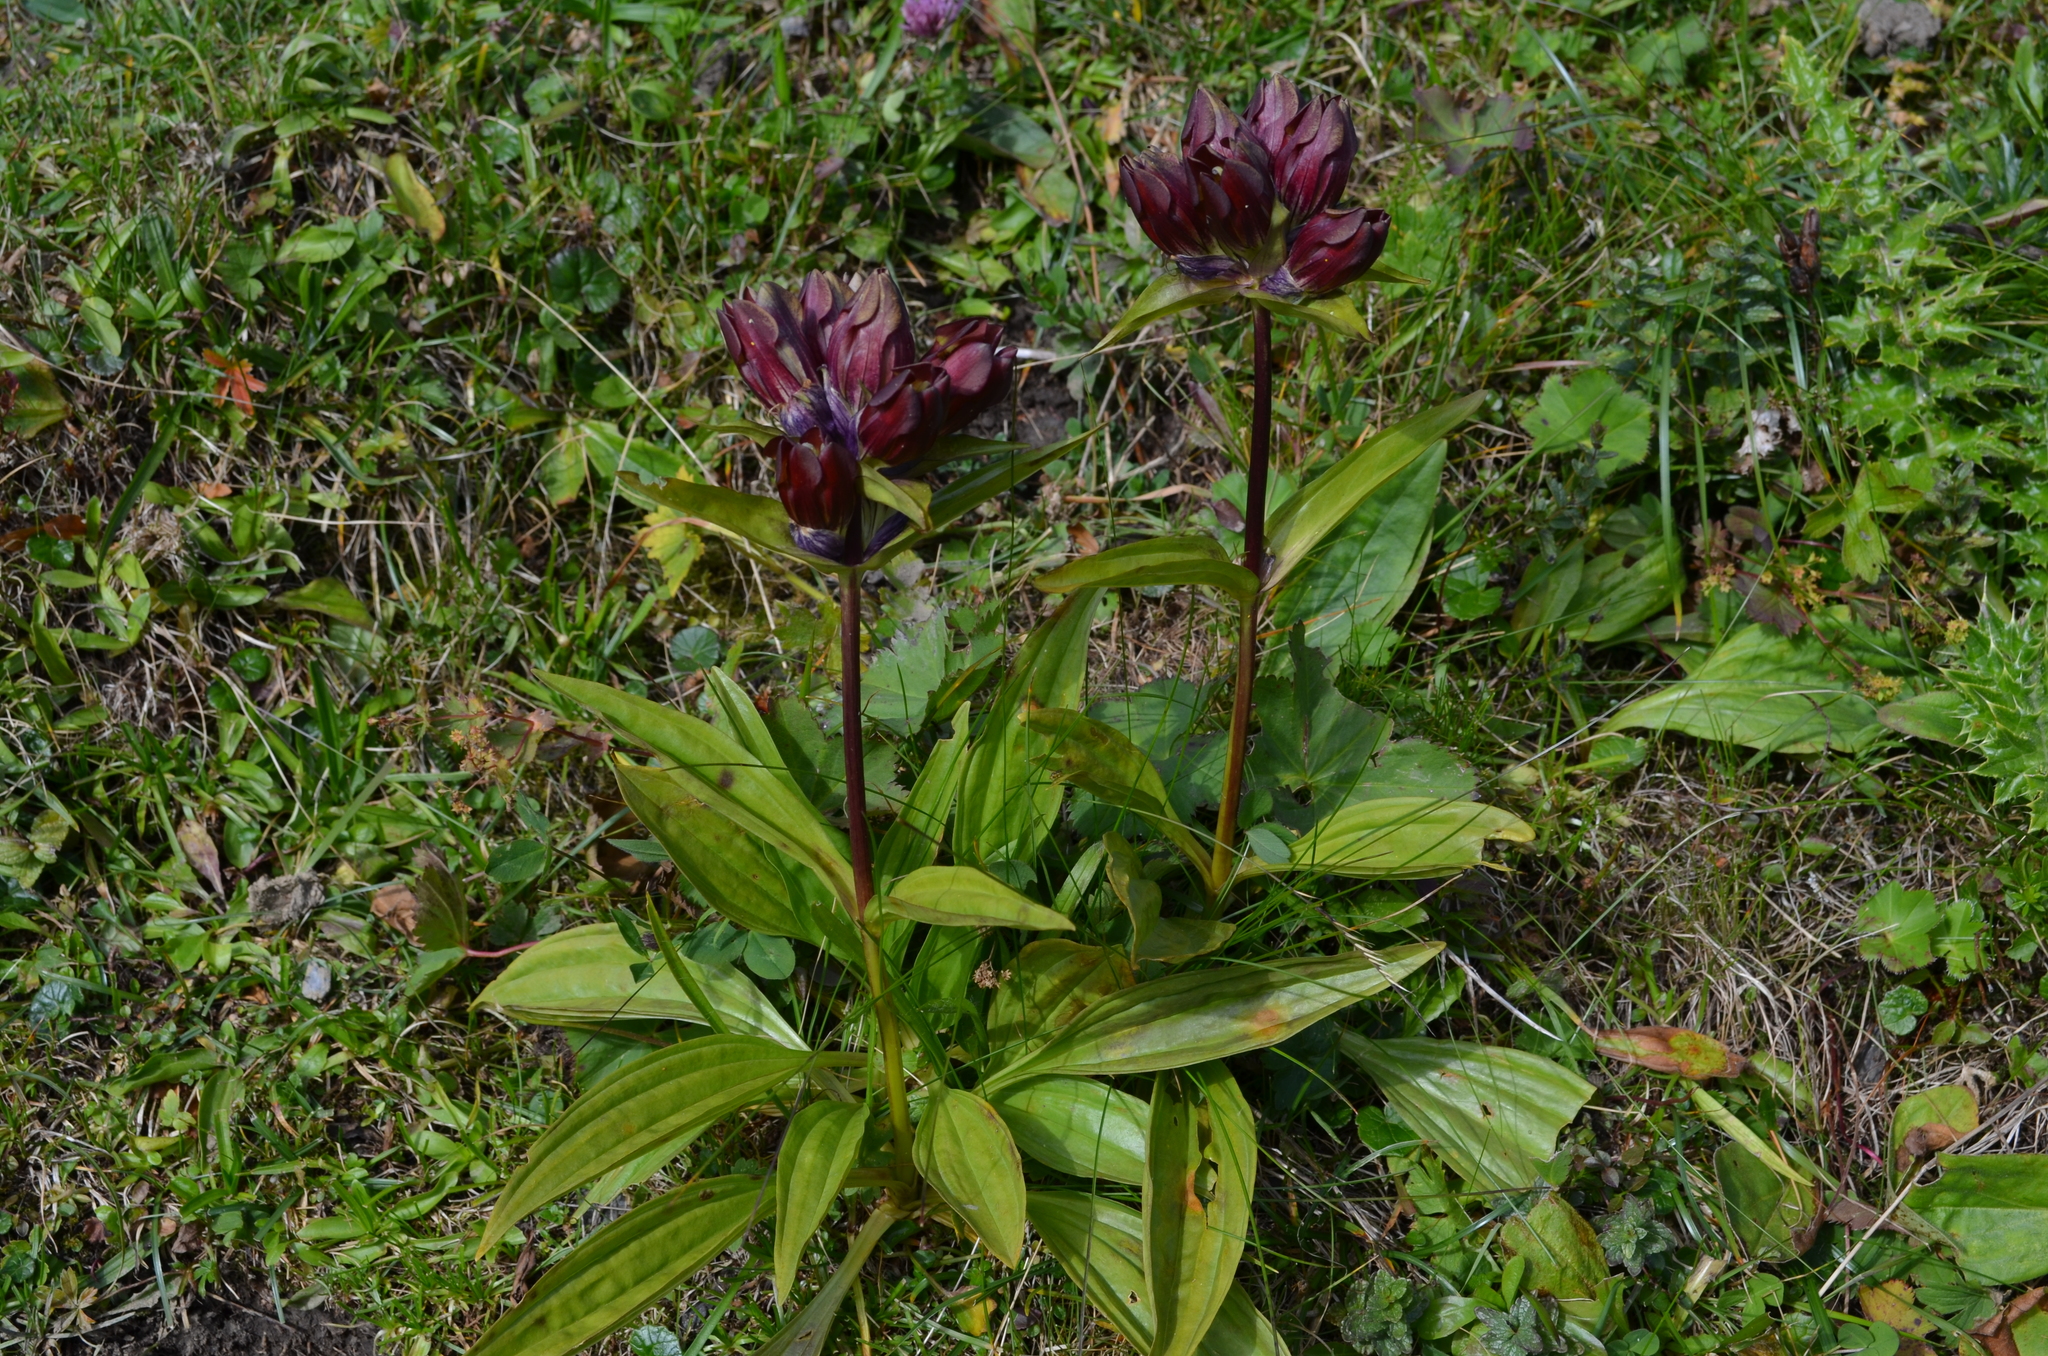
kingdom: Plantae
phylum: Tracheophyta
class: Magnoliopsida
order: Gentianales
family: Gentianaceae
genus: Gentiana
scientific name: Gentiana purpurea
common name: Purple gentian
